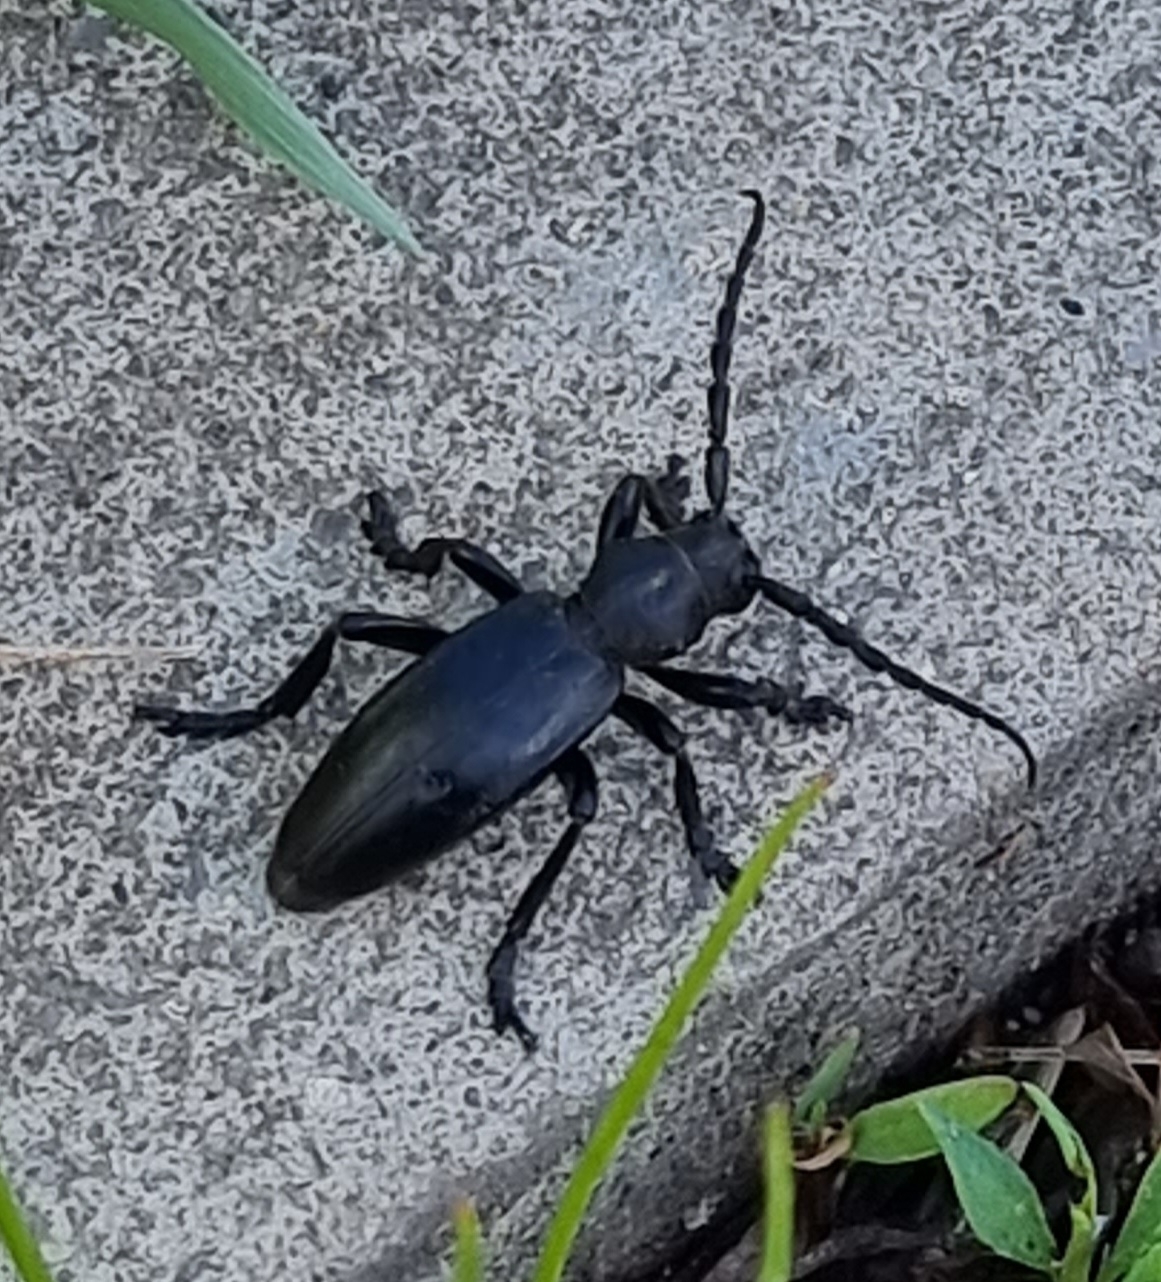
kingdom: Animalia
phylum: Arthropoda
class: Insecta
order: Coleoptera
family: Cerambycidae
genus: Dorcadion
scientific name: Dorcadion carinatum
